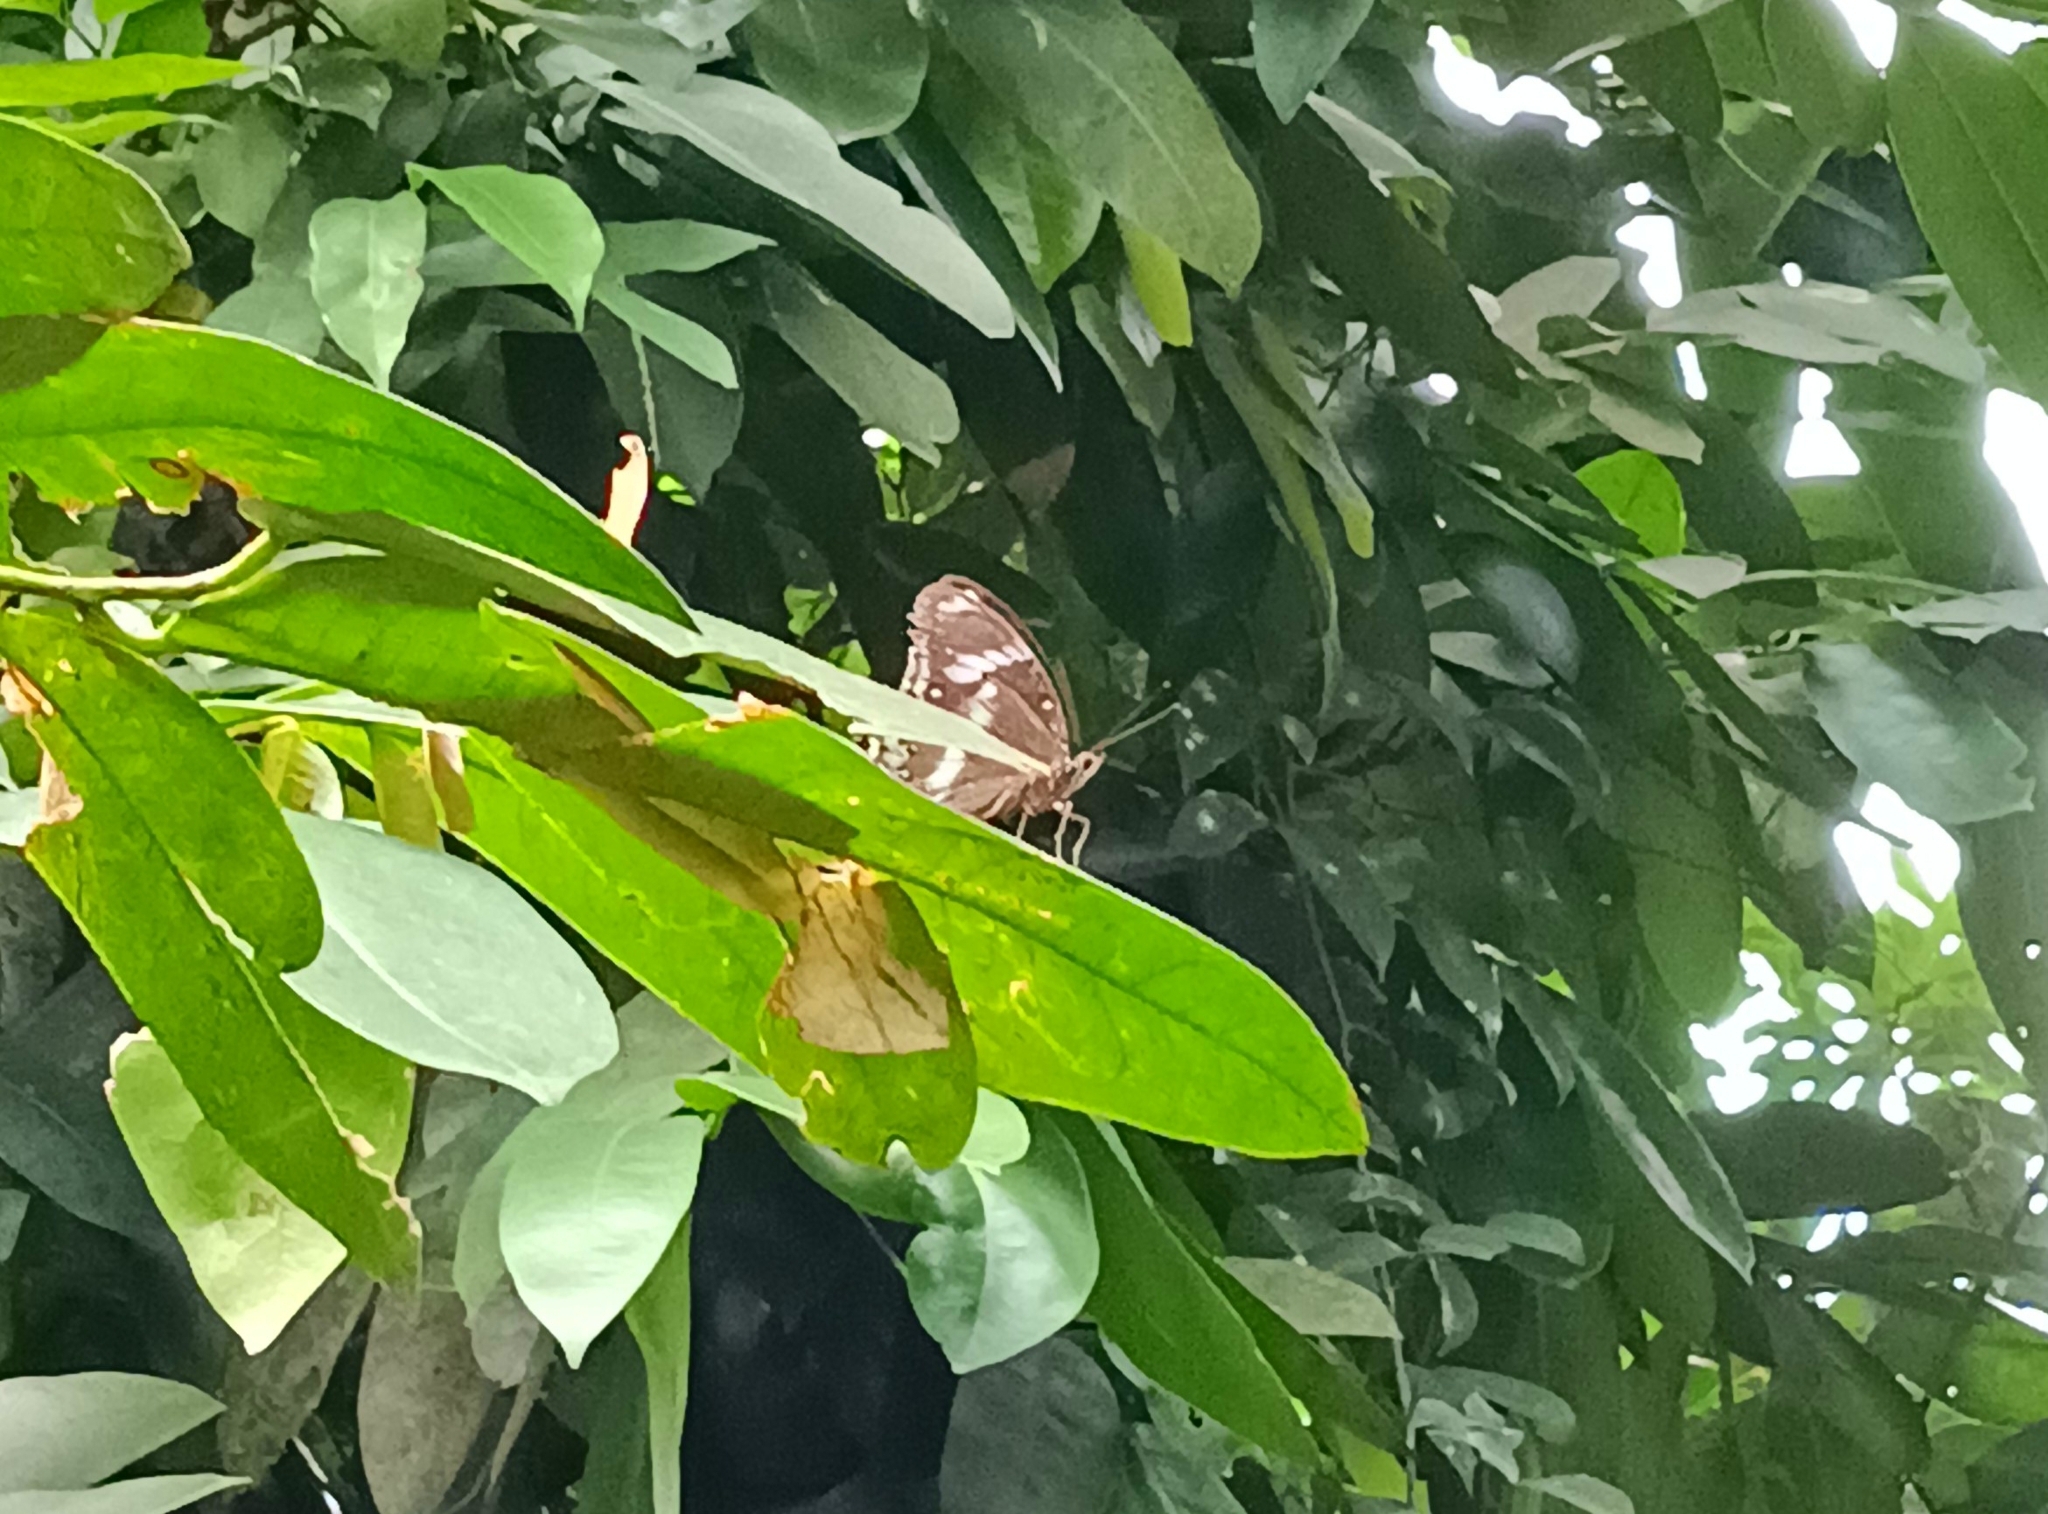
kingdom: Animalia
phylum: Arthropoda
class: Insecta
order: Lepidoptera
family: Nymphalidae
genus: Hypolimnas
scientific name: Hypolimnas bolina
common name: Great eggfly
